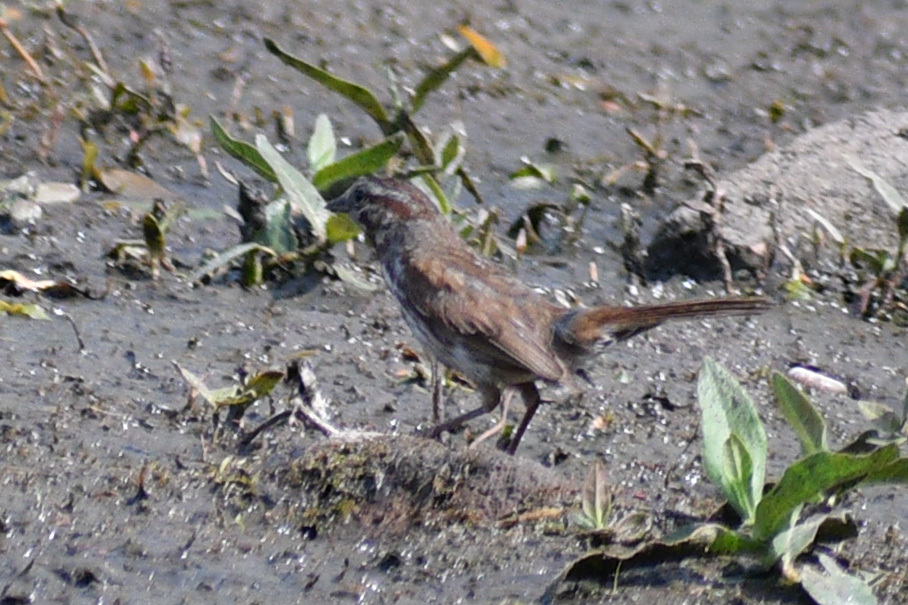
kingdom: Animalia
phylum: Chordata
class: Aves
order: Passeriformes
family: Passerellidae
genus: Melospiza
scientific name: Melospiza melodia
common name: Song sparrow
